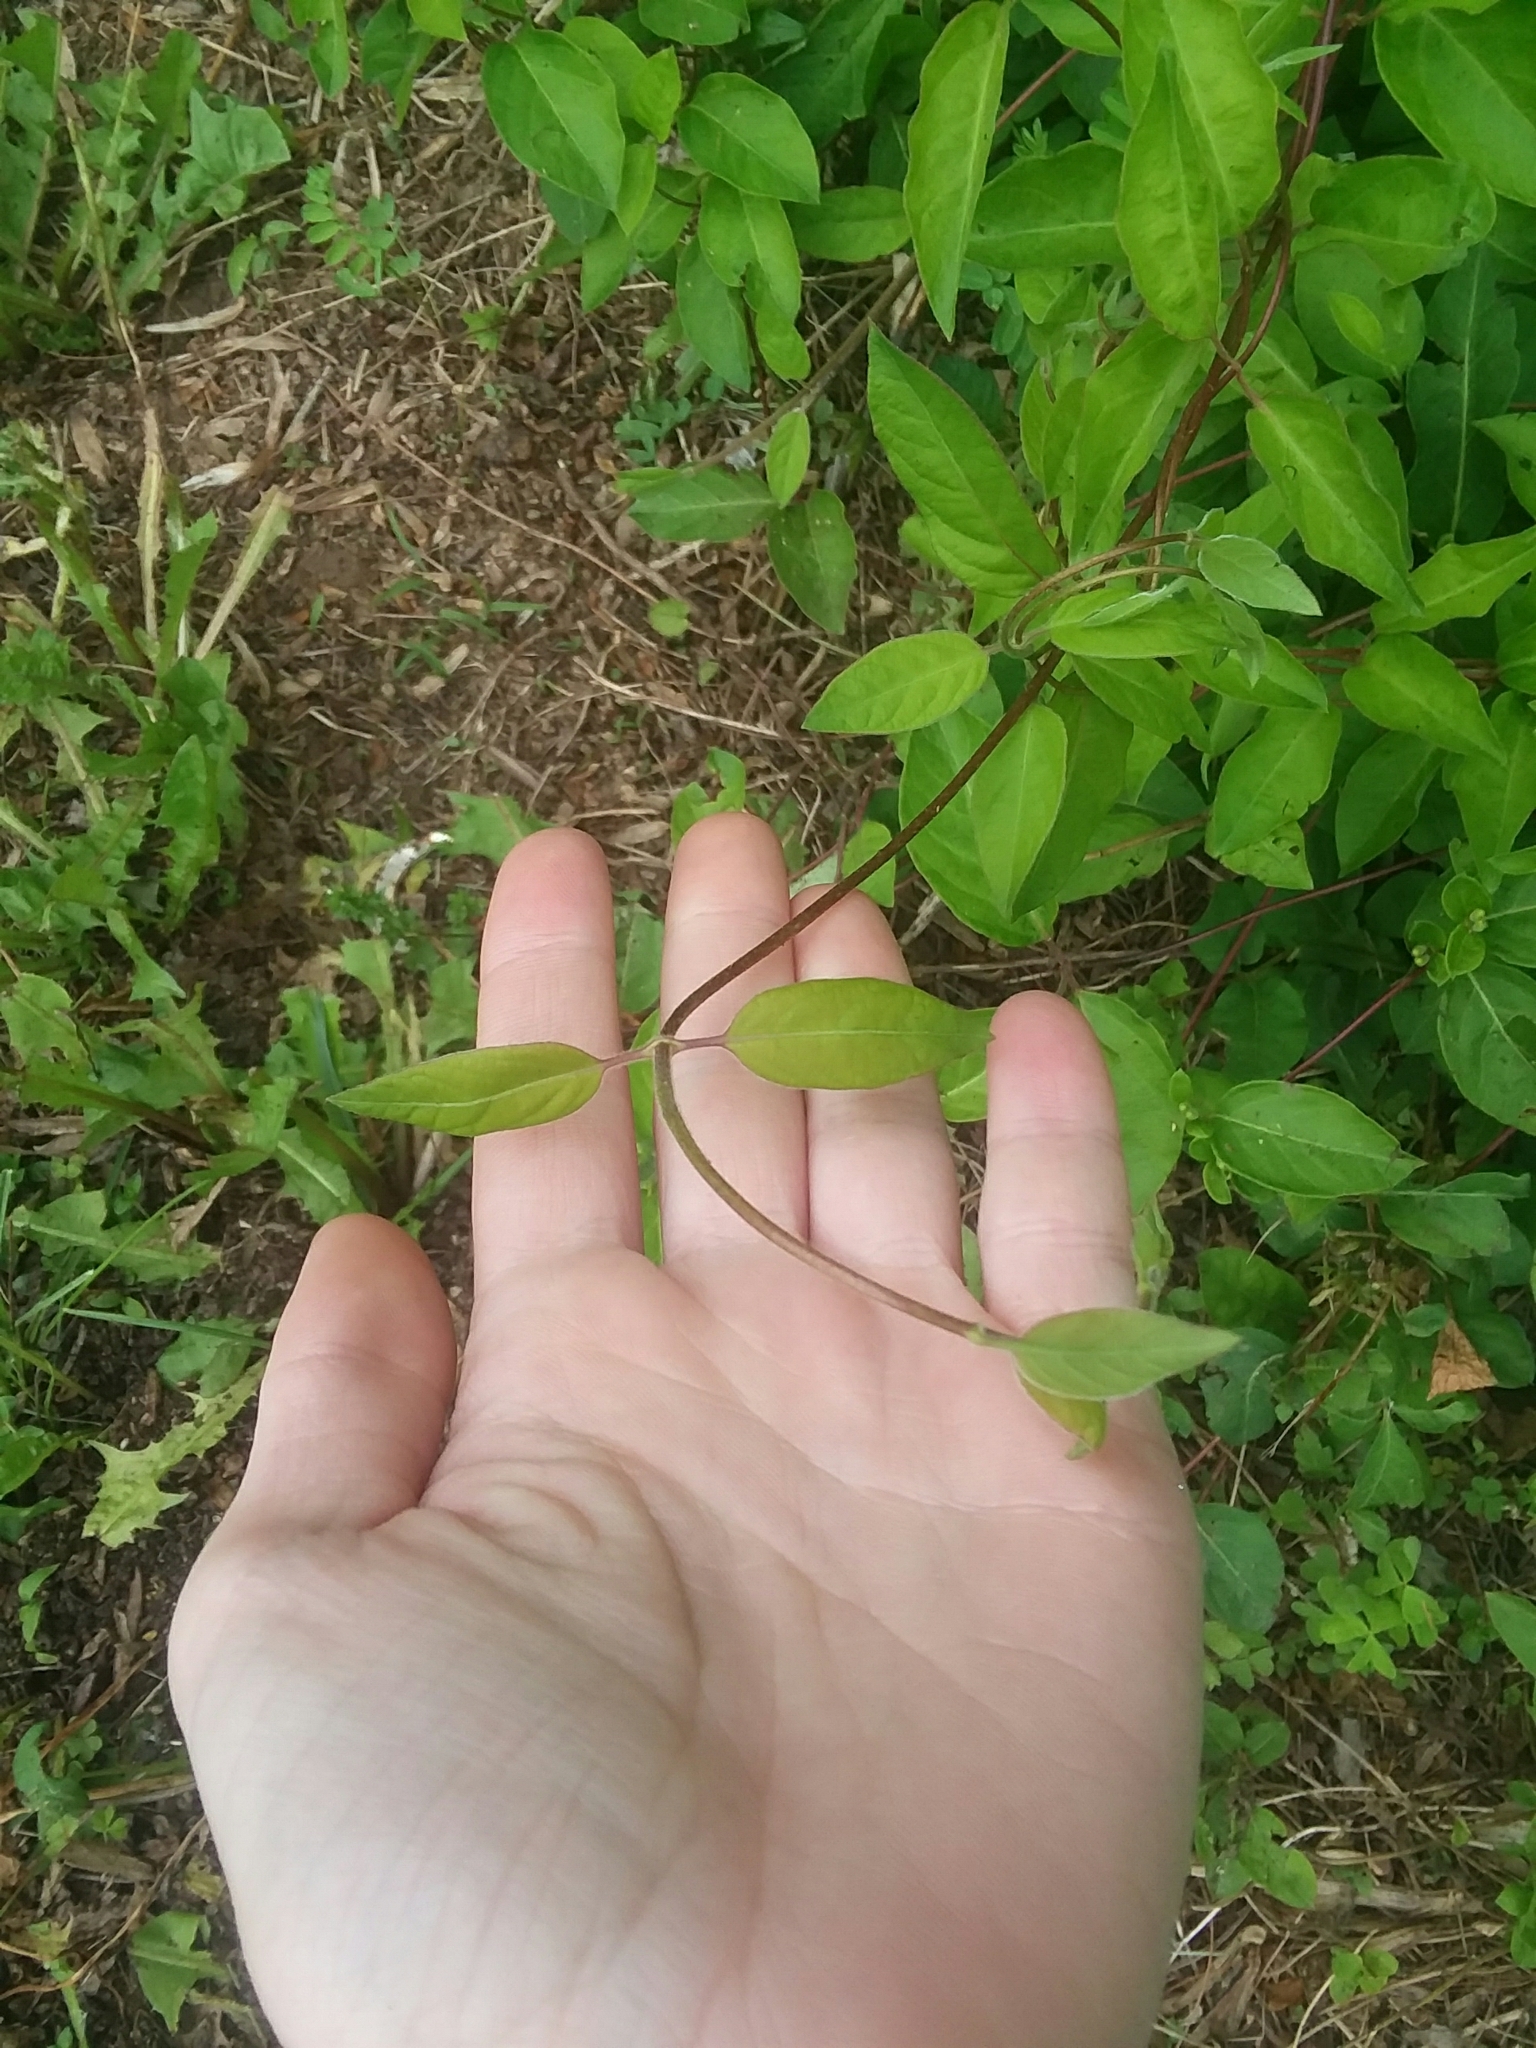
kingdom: Plantae
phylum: Tracheophyta
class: Magnoliopsida
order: Dipsacales
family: Caprifoliaceae
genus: Lonicera
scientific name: Lonicera japonica
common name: Japanese honeysuckle
